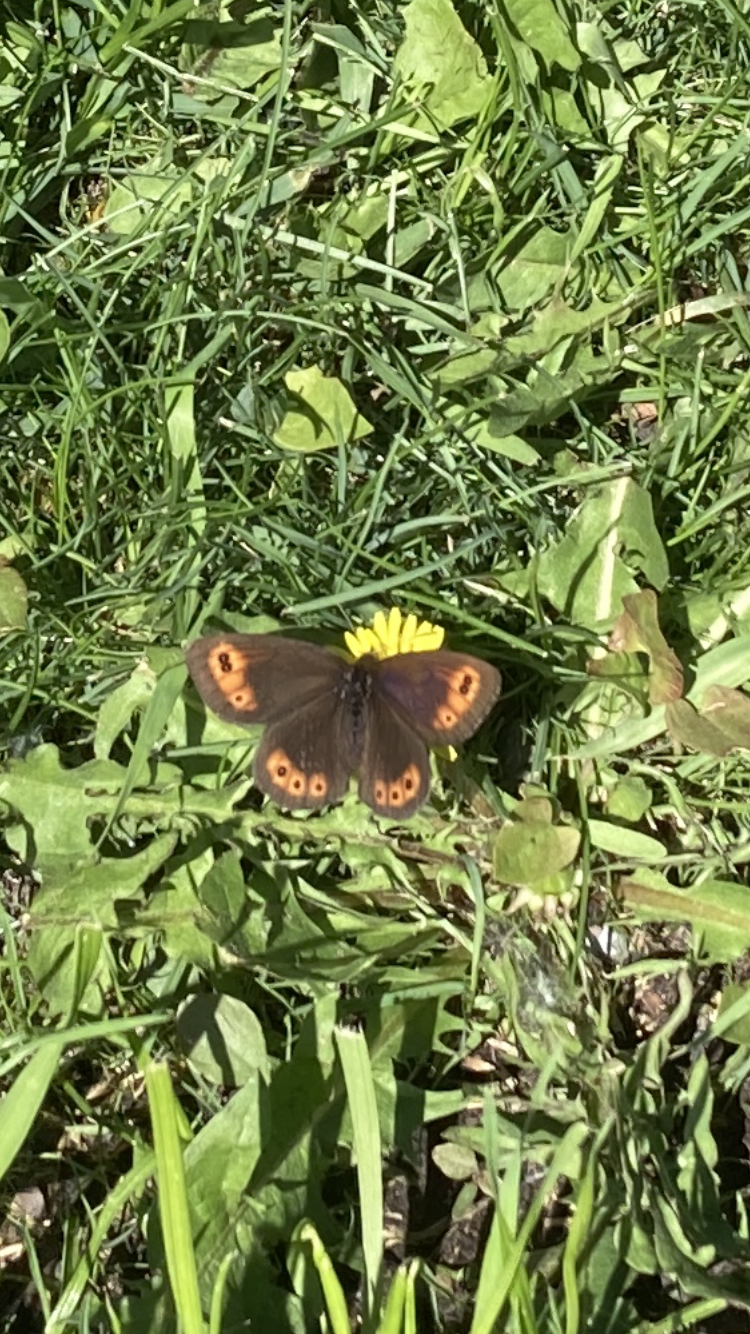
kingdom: Animalia
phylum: Arthropoda
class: Insecta
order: Lepidoptera
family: Nymphalidae
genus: Erebia
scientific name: Erebia epipsodea
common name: Common alpine
